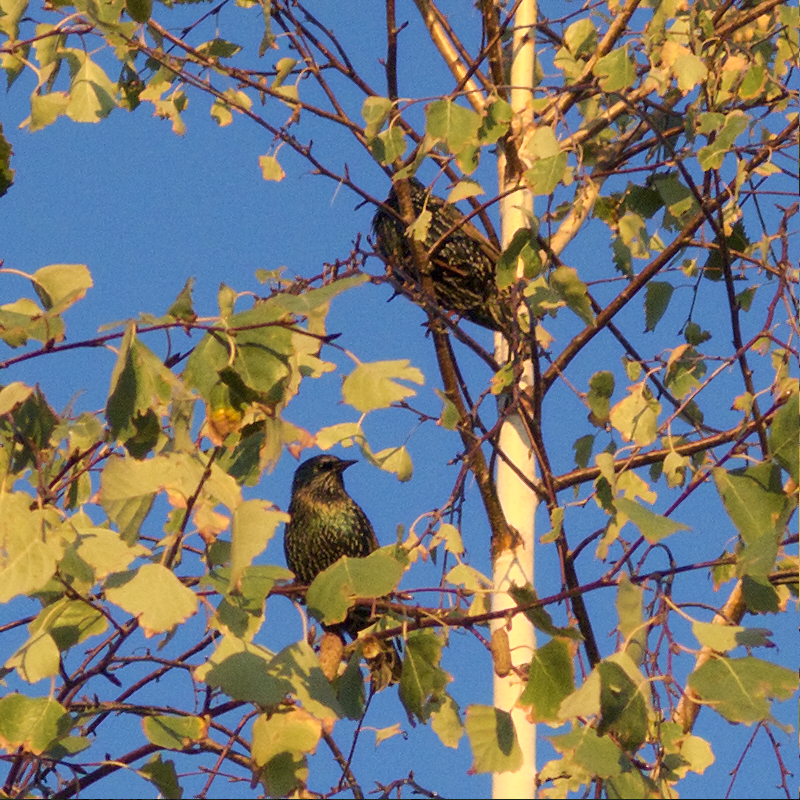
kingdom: Animalia
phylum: Chordata
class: Aves
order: Passeriformes
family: Sturnidae
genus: Sturnus
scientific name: Sturnus vulgaris
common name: Common starling
